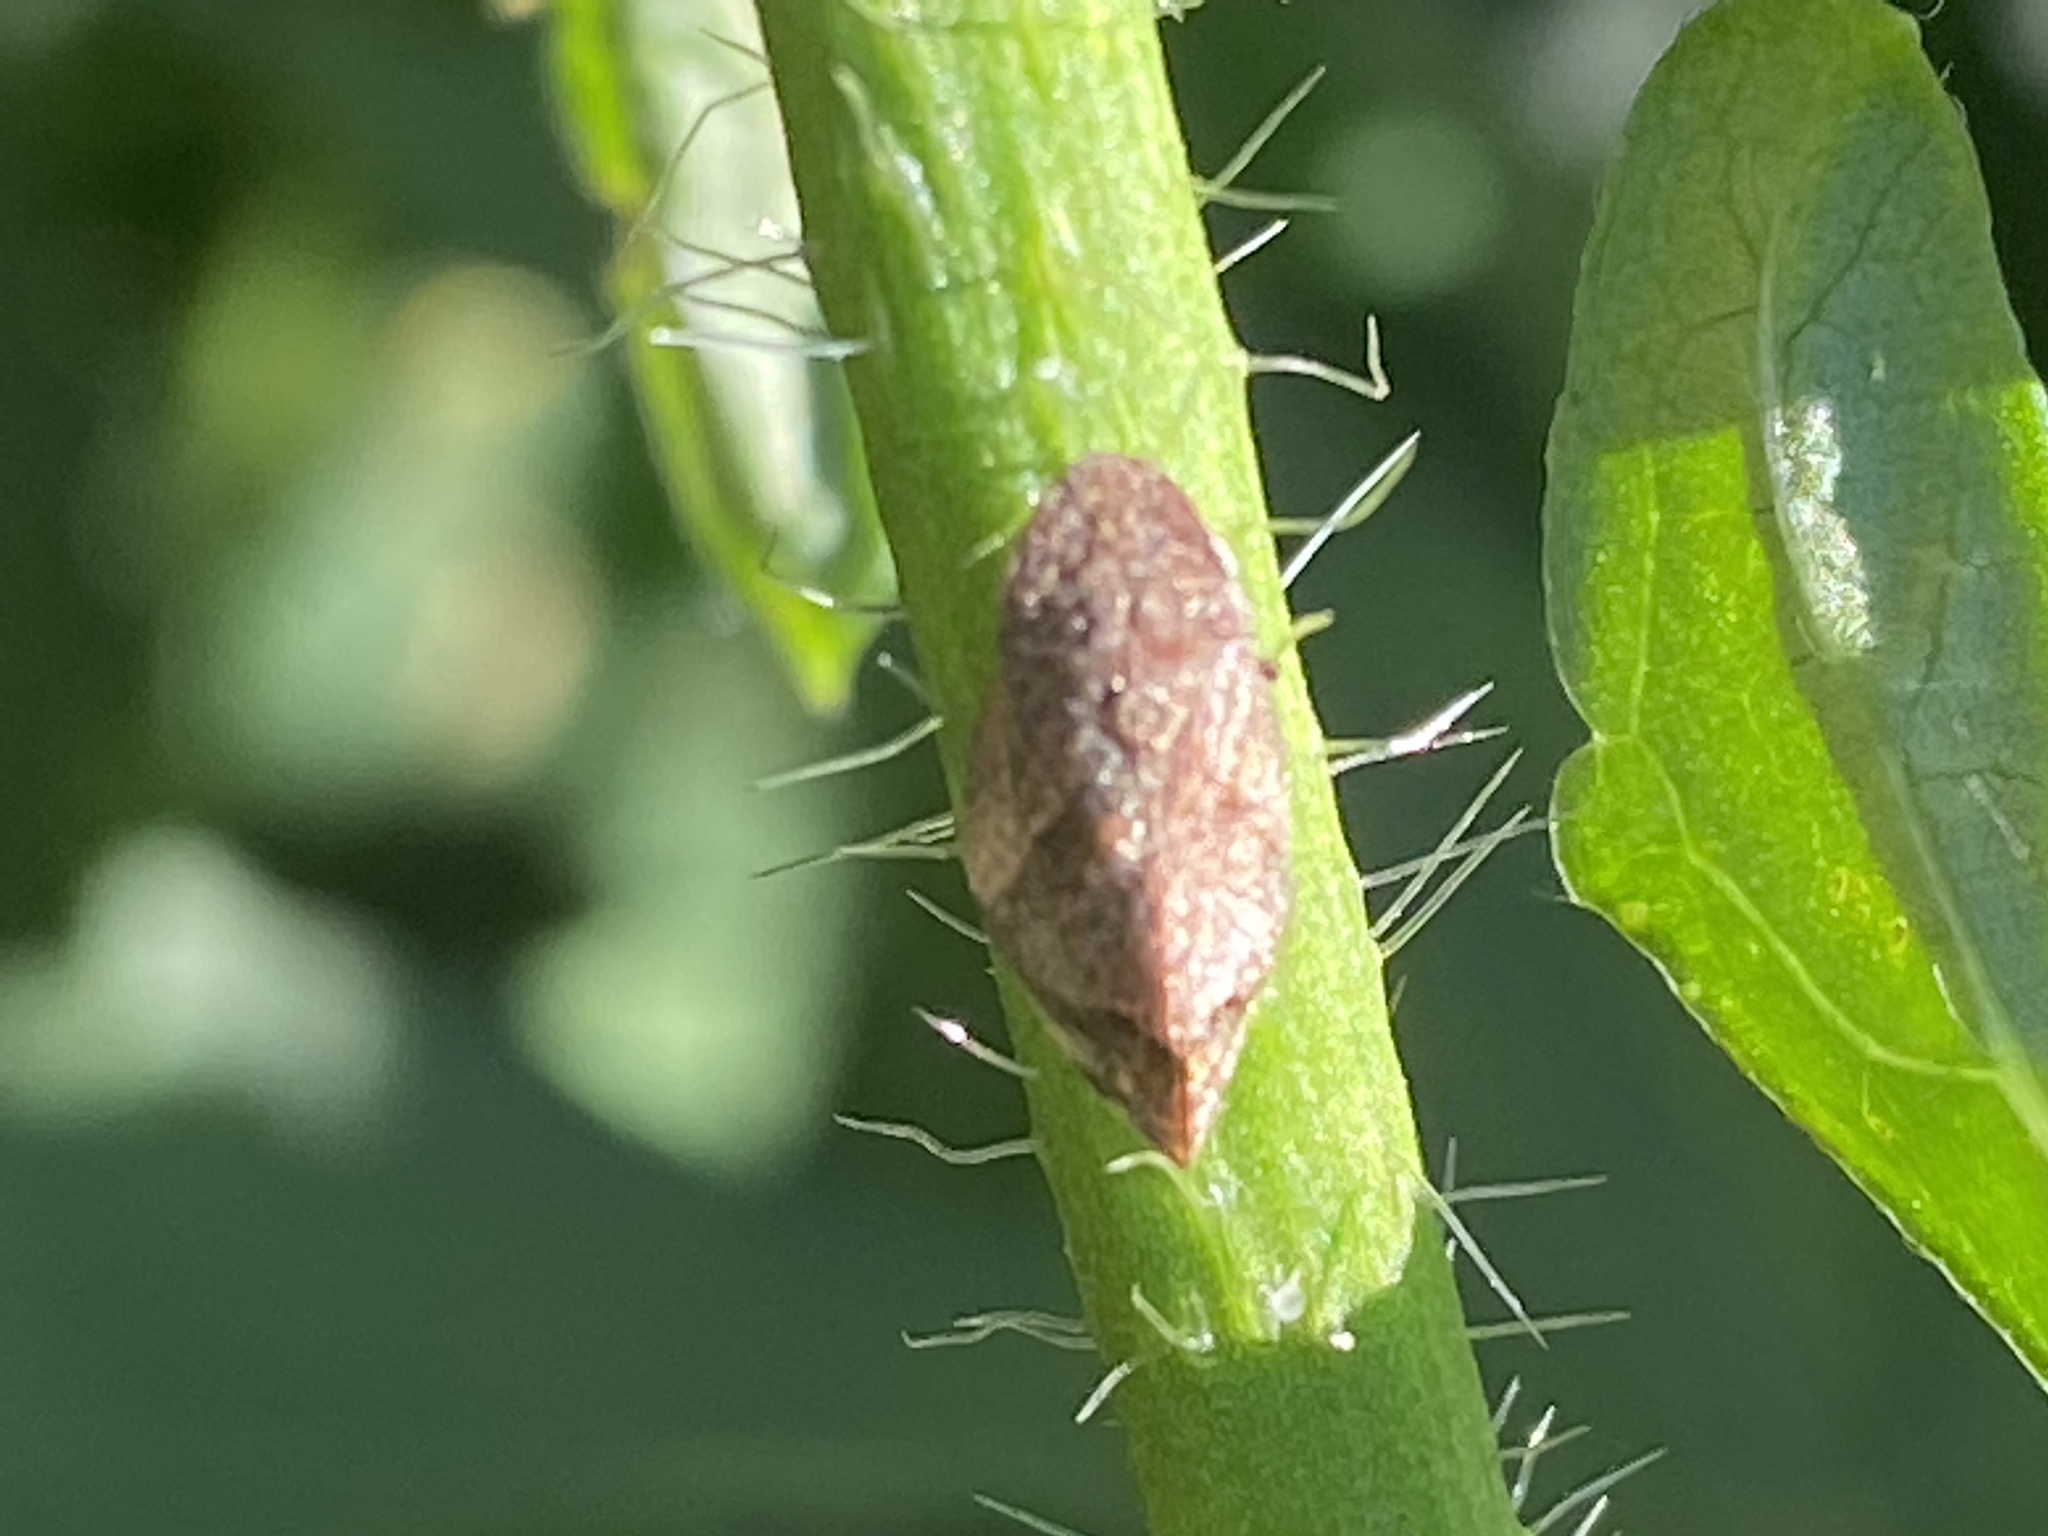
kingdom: Animalia
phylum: Arthropoda
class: Insecta
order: Hemiptera
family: Aphrophoridae
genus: Lepyronia
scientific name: Lepyronia quadrangularis
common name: Diamond-backed spittlebug
